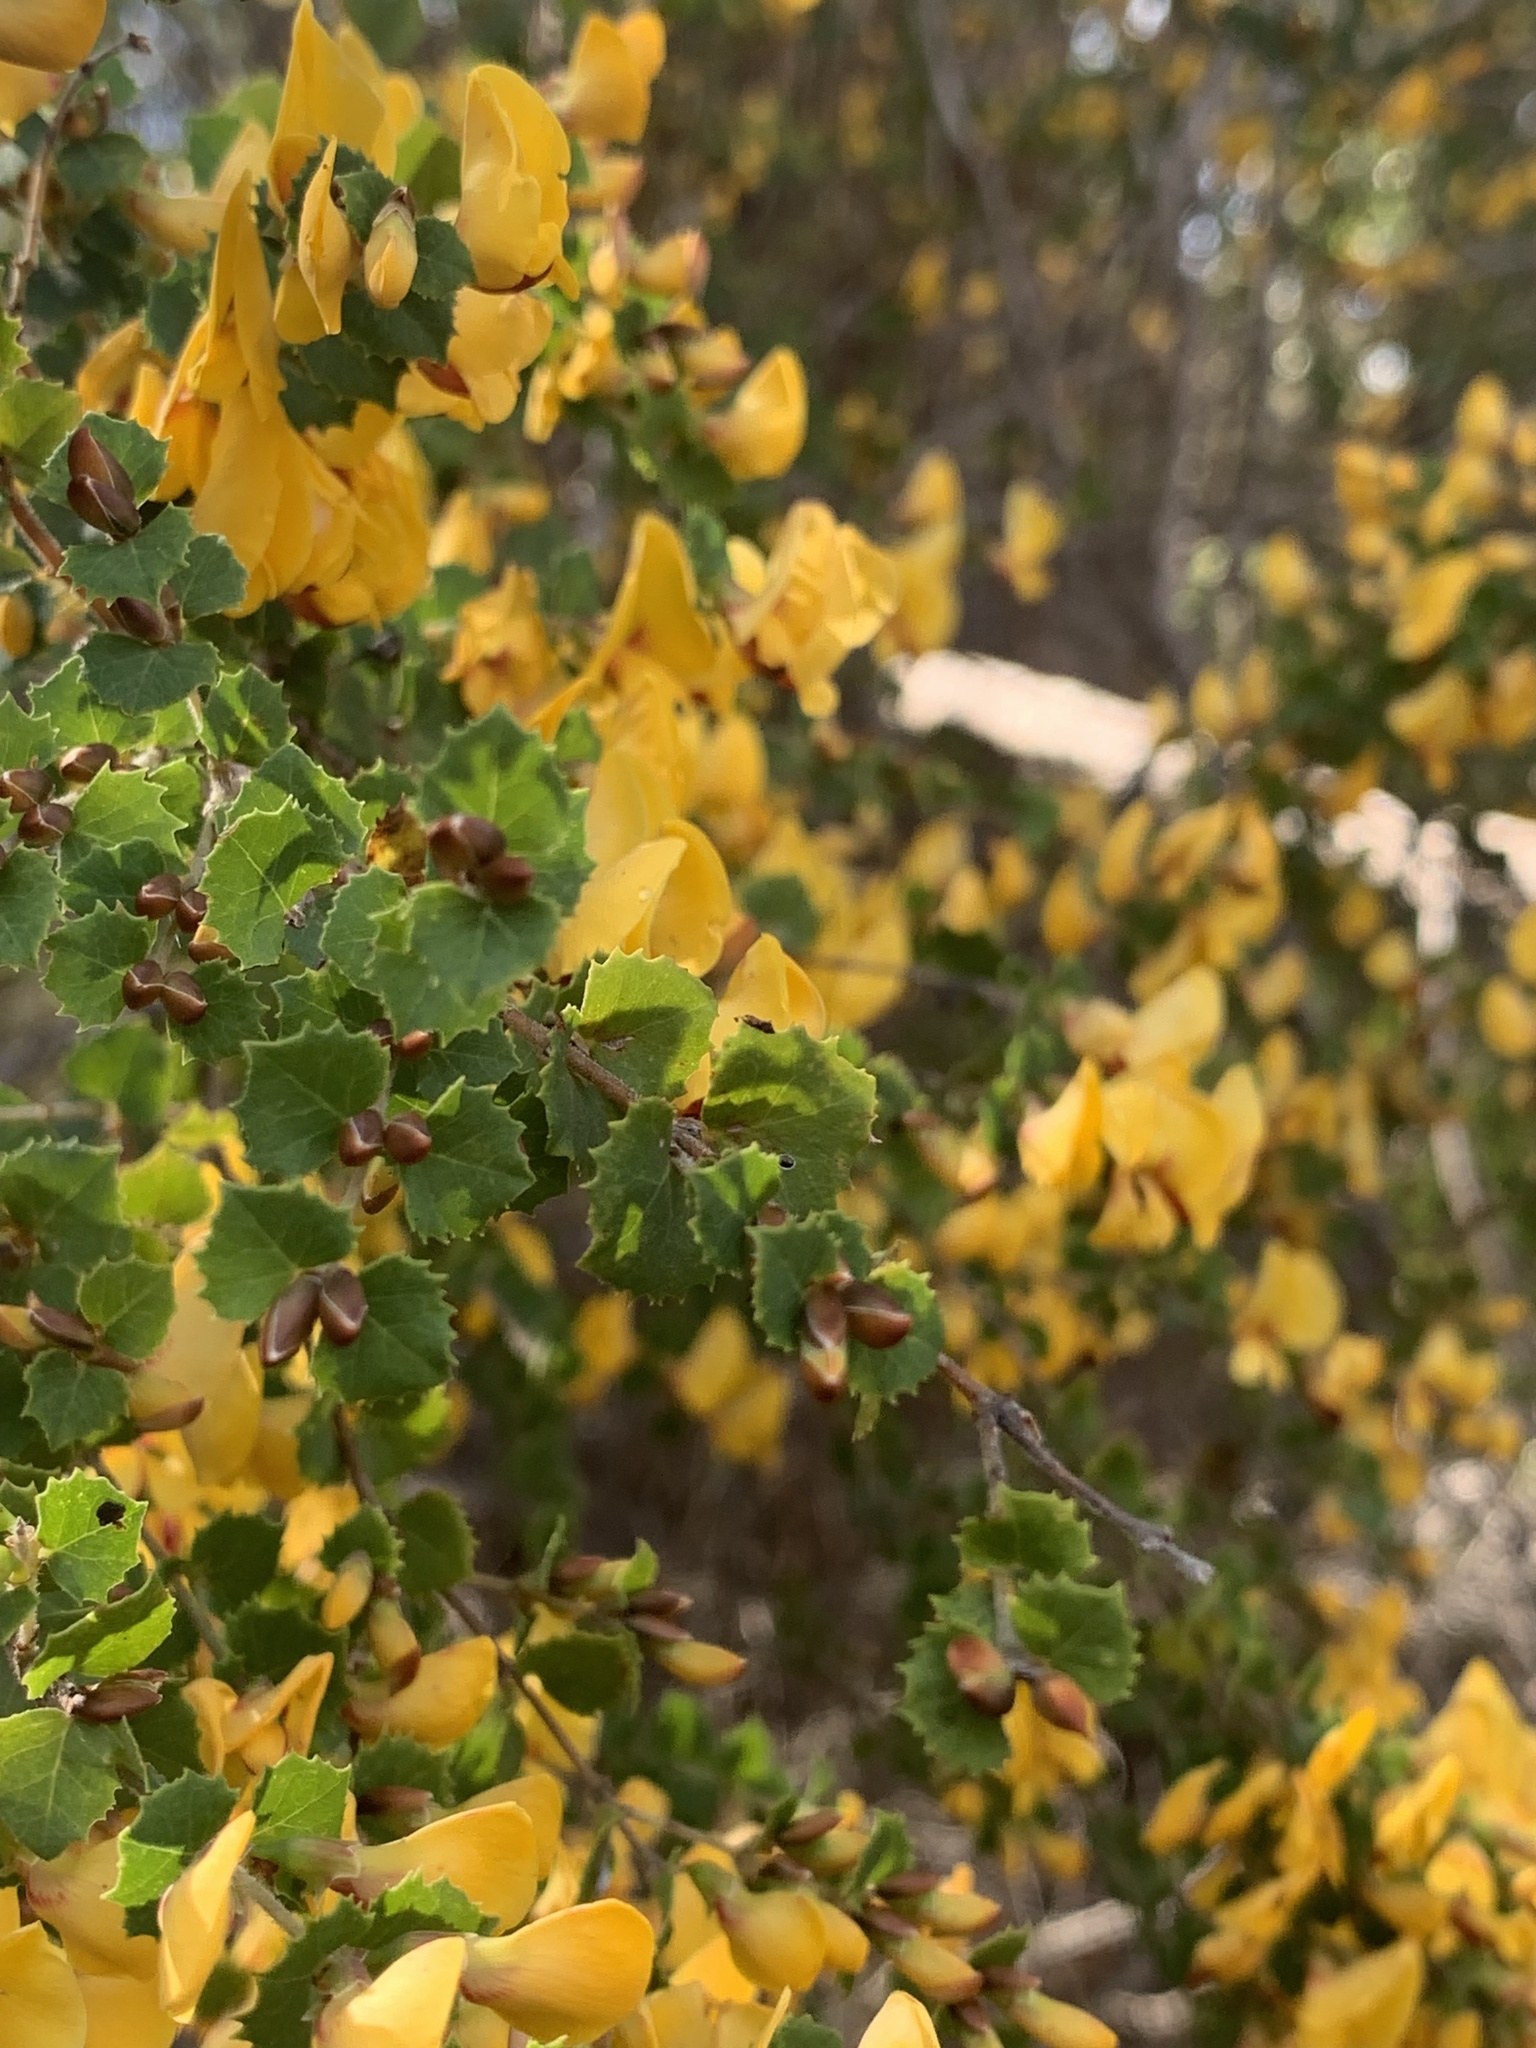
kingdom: Plantae
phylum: Tracheophyta
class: Magnoliopsida
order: Fabales
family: Fabaceae
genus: Bossiaea
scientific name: Bossiaea aquifolium
